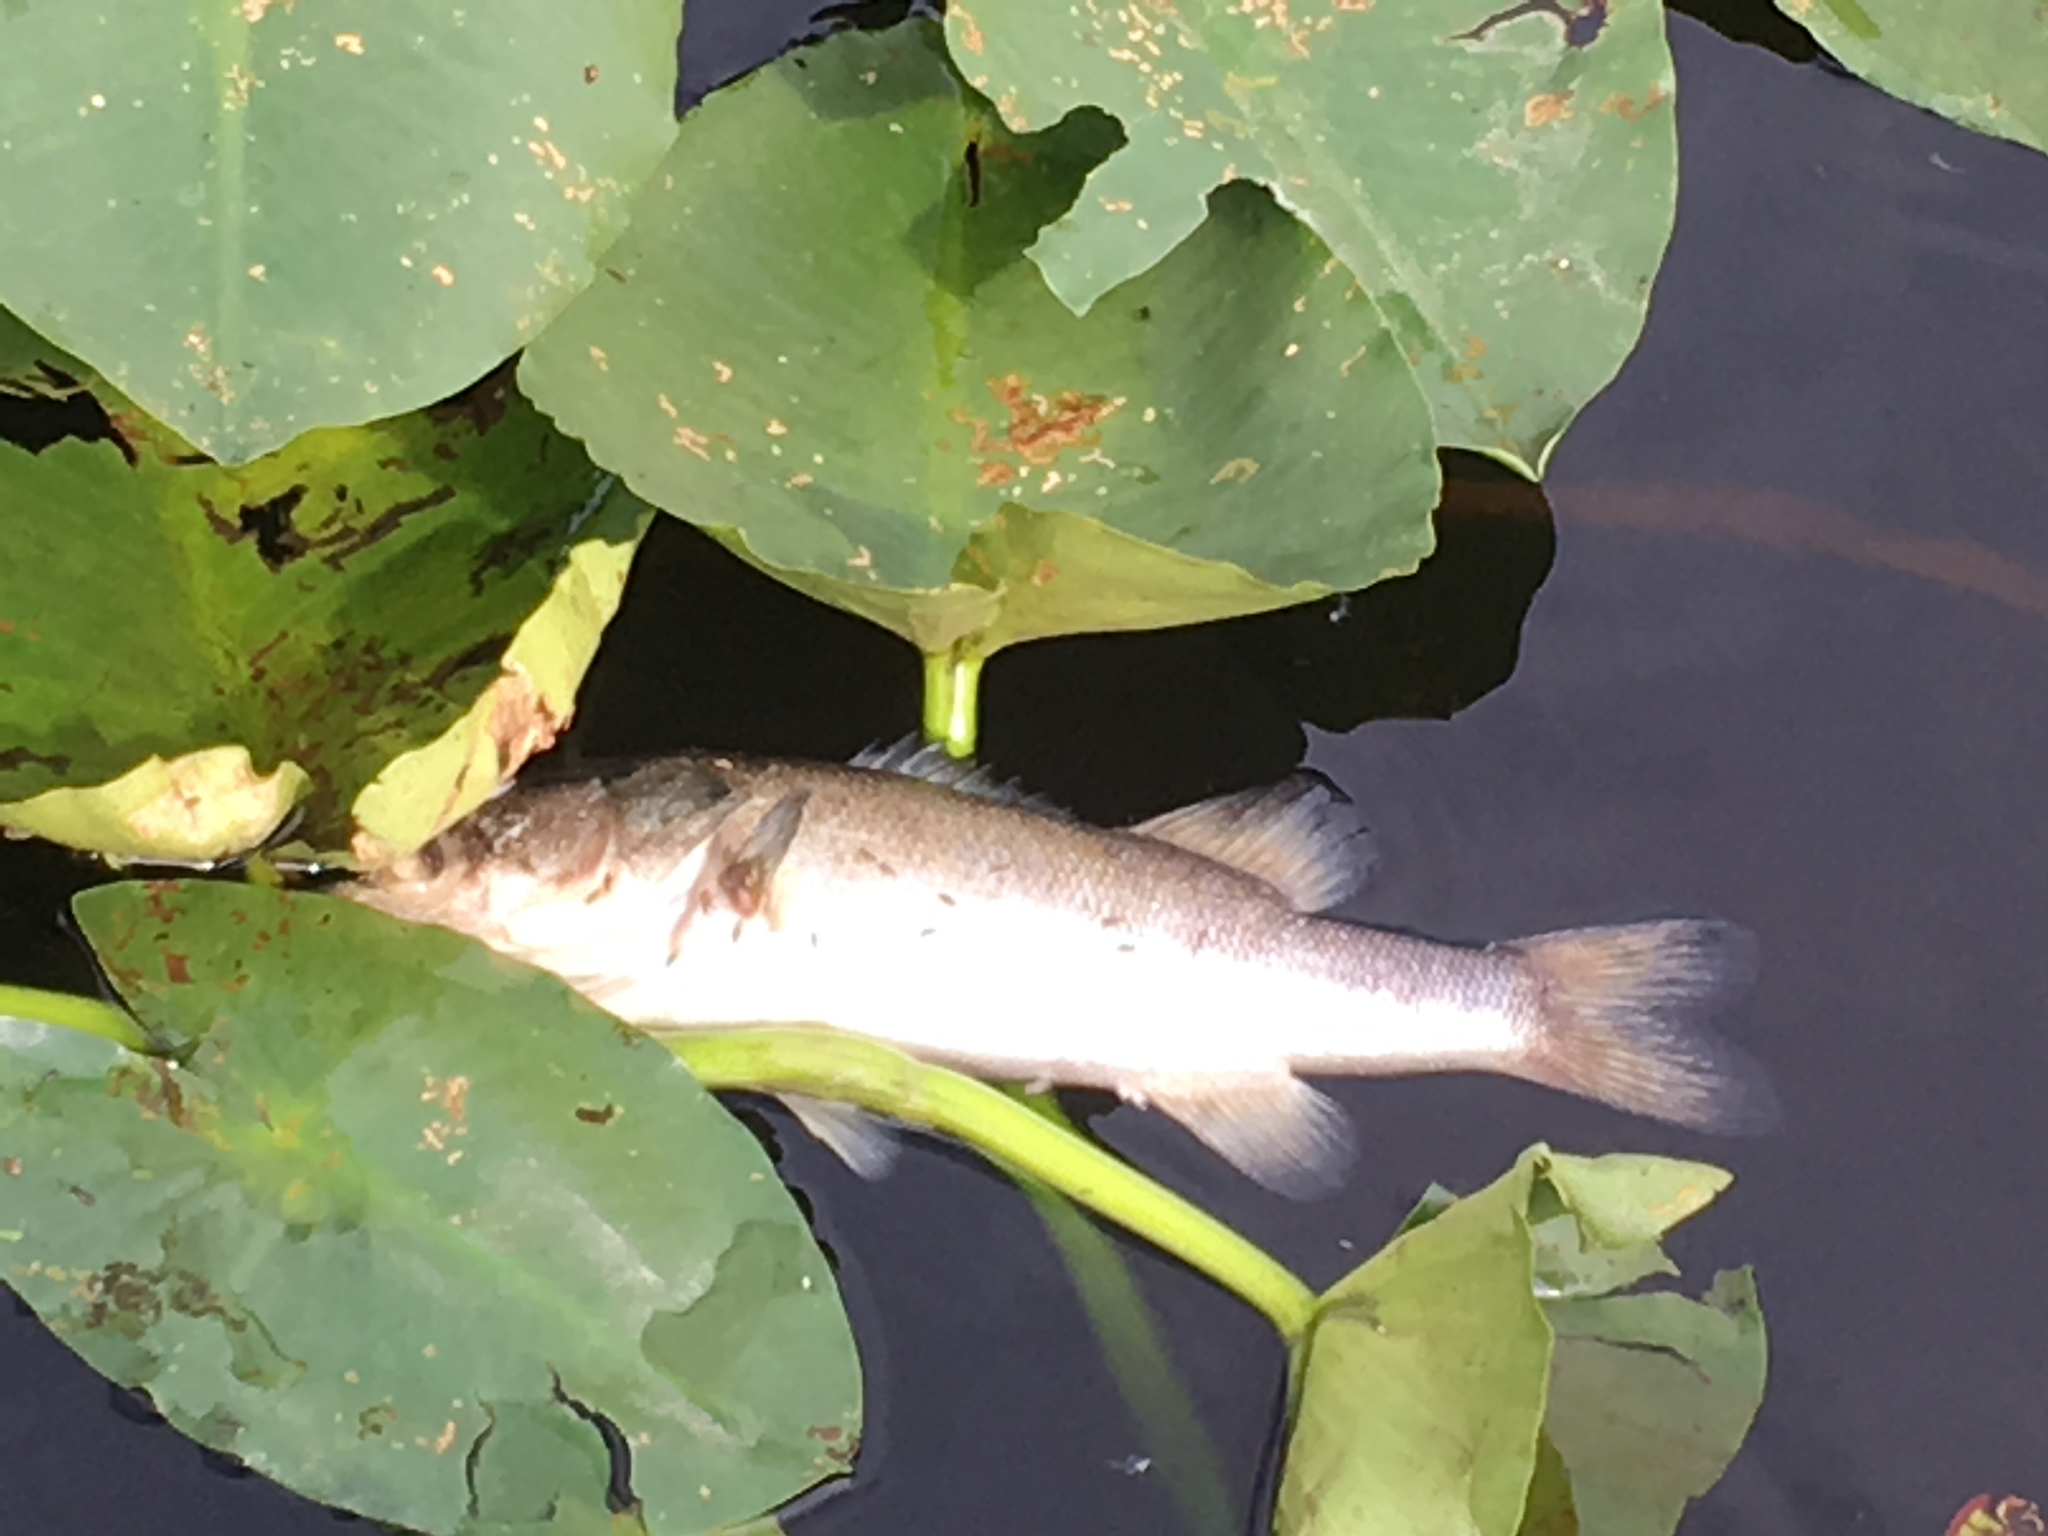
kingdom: Animalia
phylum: Chordata
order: Perciformes
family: Centrarchidae
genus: Micropterus
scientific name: Micropterus salmoides
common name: Largemouth bass
